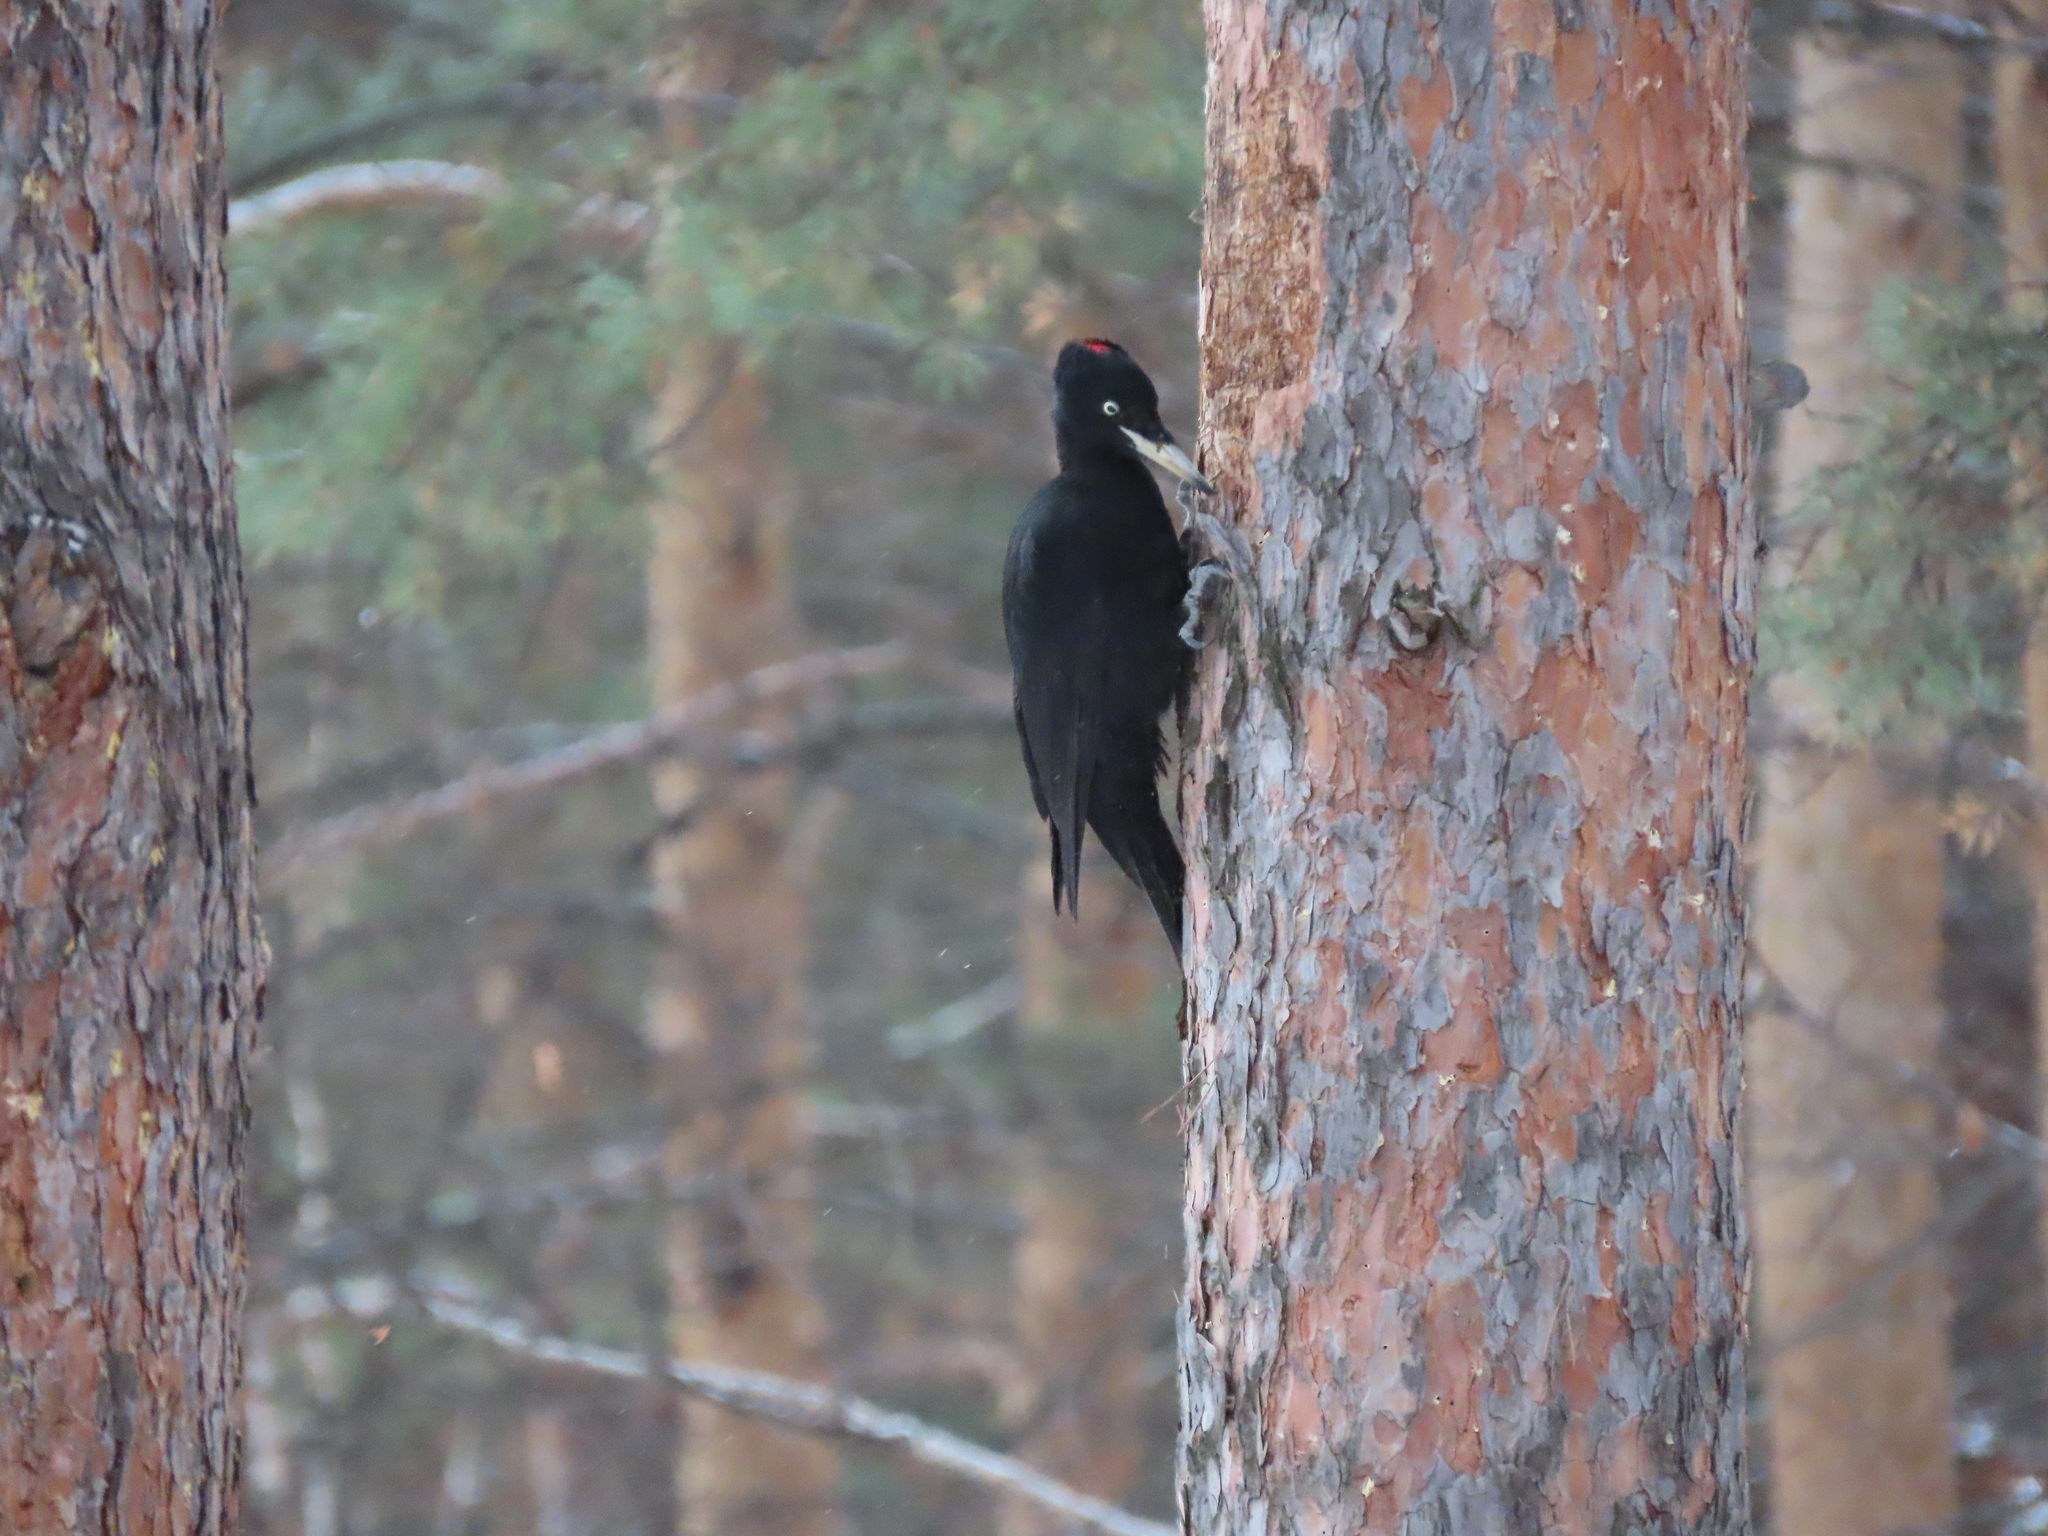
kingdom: Animalia
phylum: Chordata
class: Aves
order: Piciformes
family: Picidae
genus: Dryocopus
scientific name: Dryocopus martius
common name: Black woodpecker
